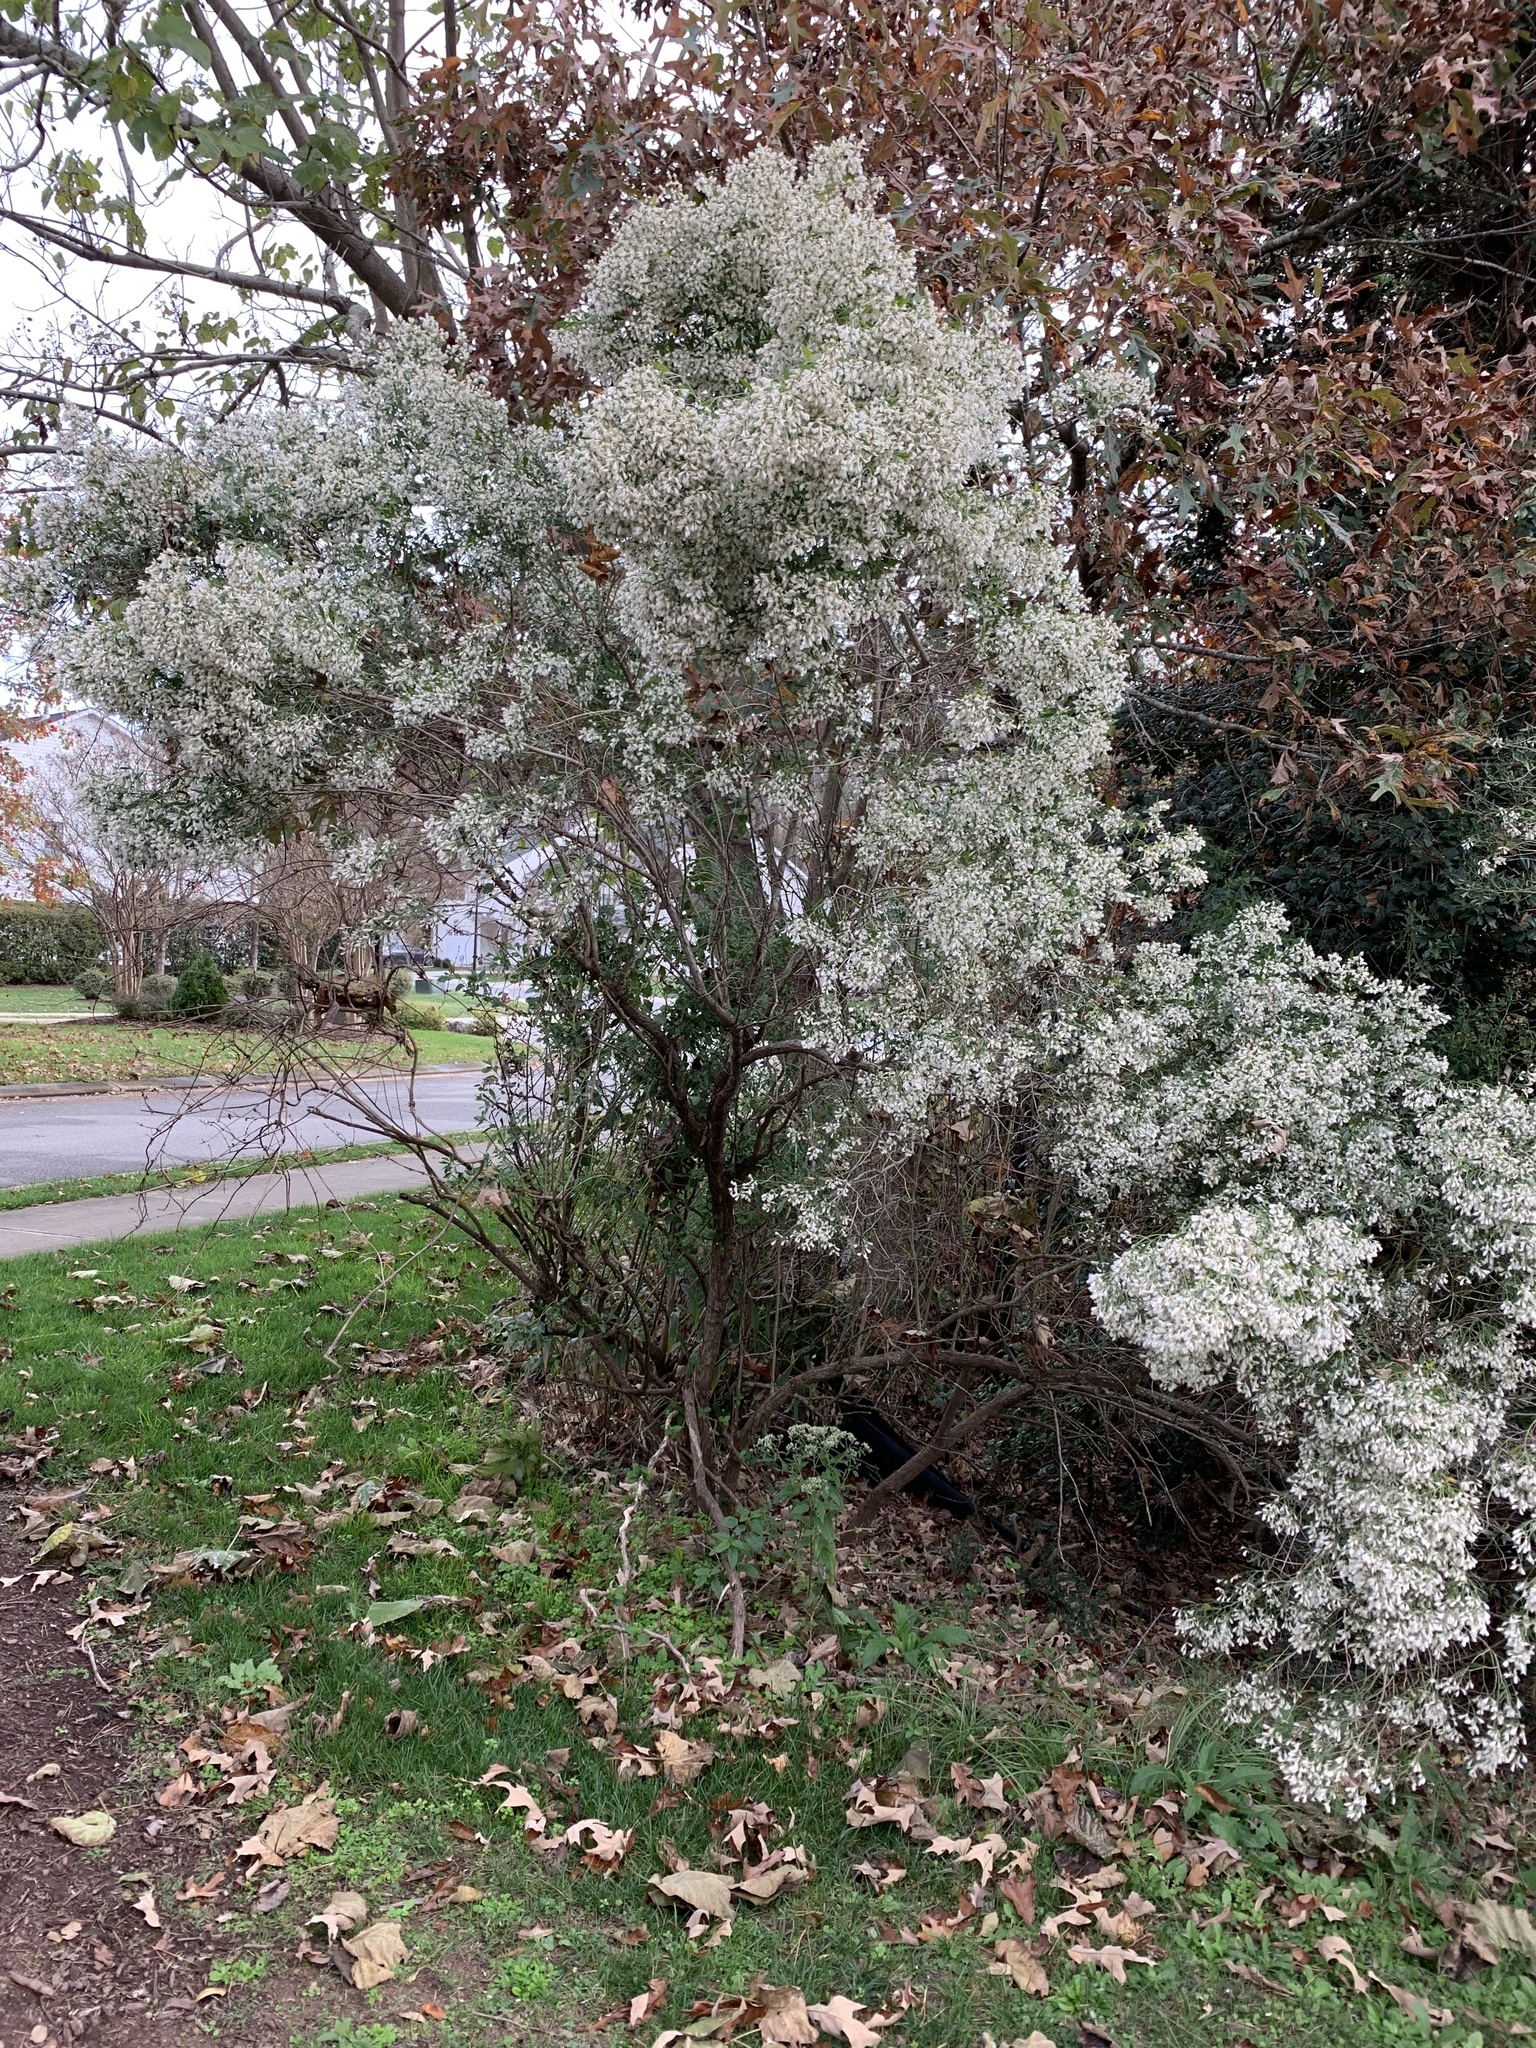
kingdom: Plantae
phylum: Tracheophyta
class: Magnoliopsida
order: Asterales
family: Asteraceae
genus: Baccharis
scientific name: Baccharis halimifolia
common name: Eastern baccharis
